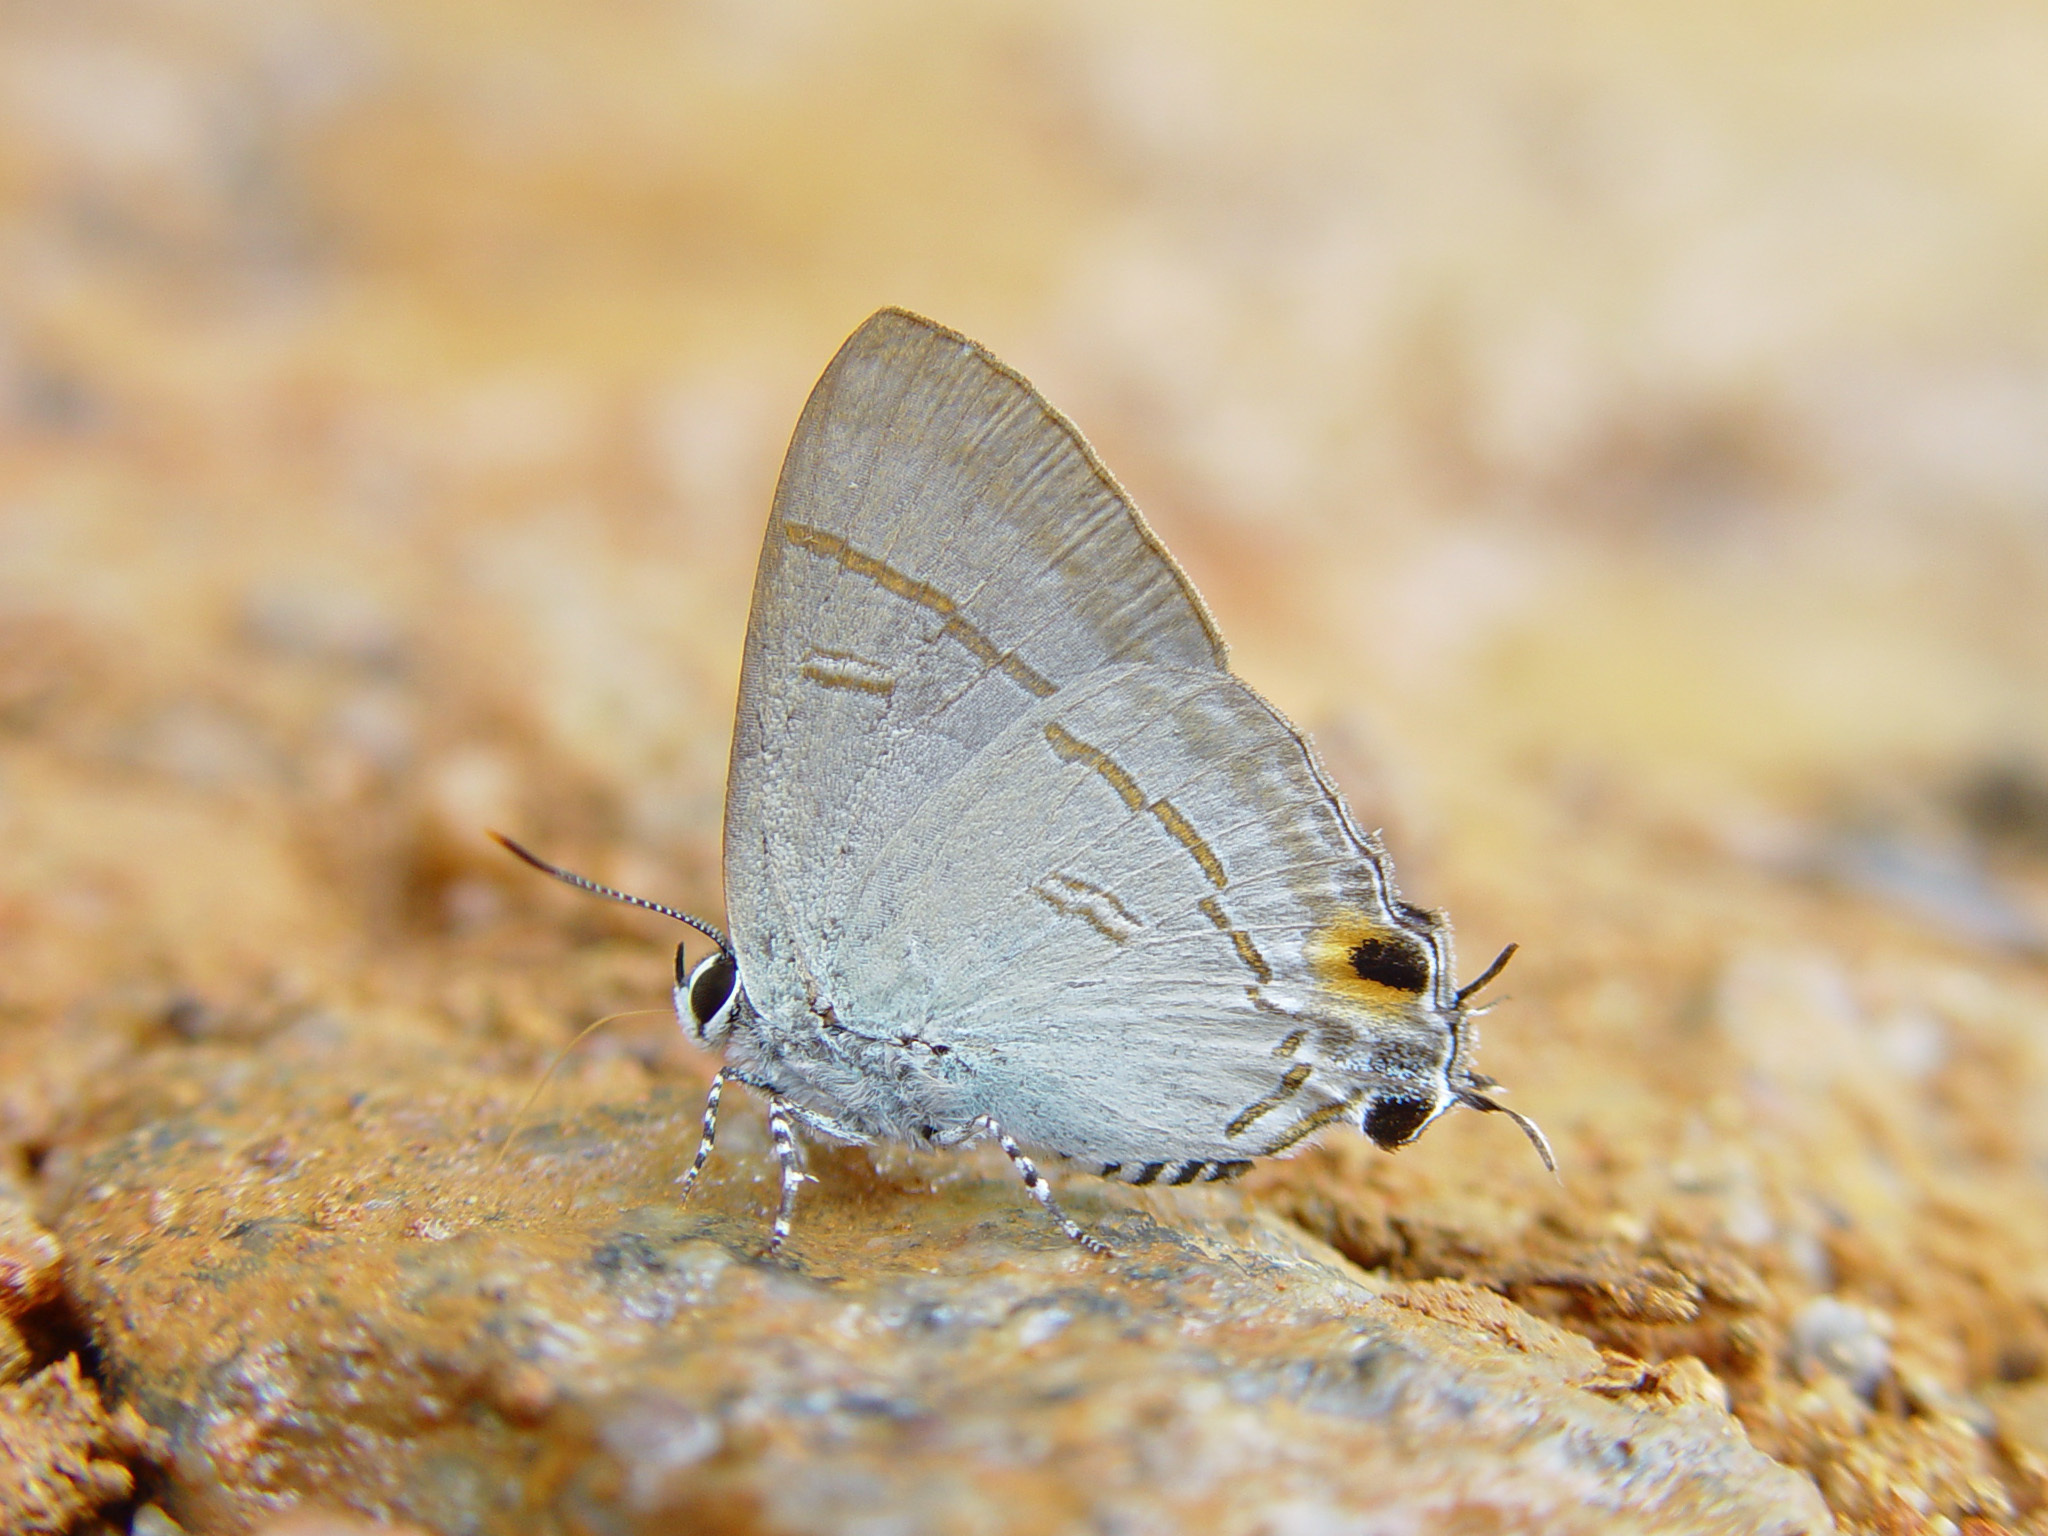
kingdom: Animalia
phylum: Arthropoda
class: Insecta
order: Lepidoptera
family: Lycaenidae
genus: Hypolycaena
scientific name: Hypolycaena erylus
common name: Common tit
